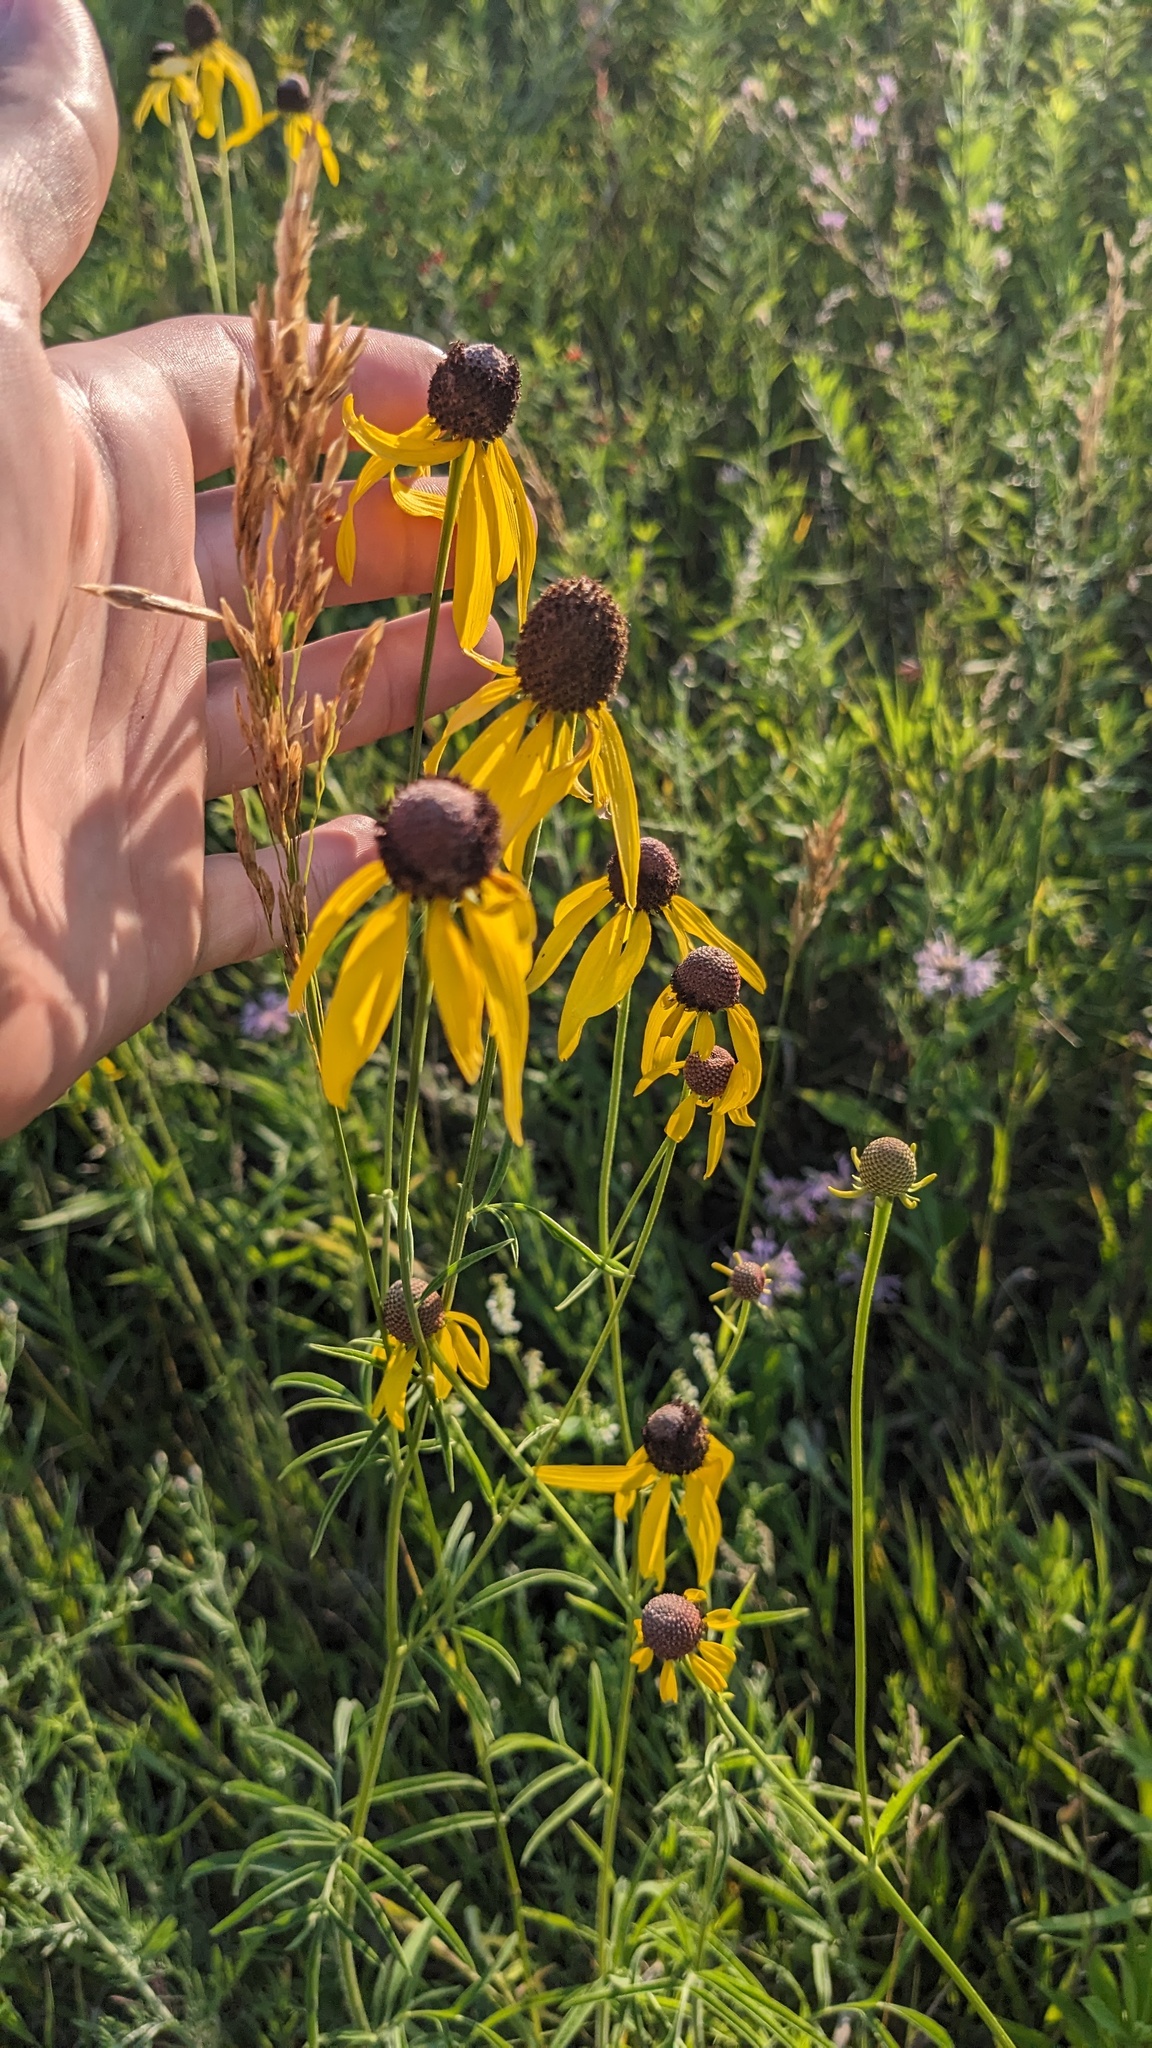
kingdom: Plantae
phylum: Tracheophyta
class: Magnoliopsida
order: Asterales
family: Asteraceae
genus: Ratibida
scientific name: Ratibida pinnata
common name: Drooping prairie-coneflower
